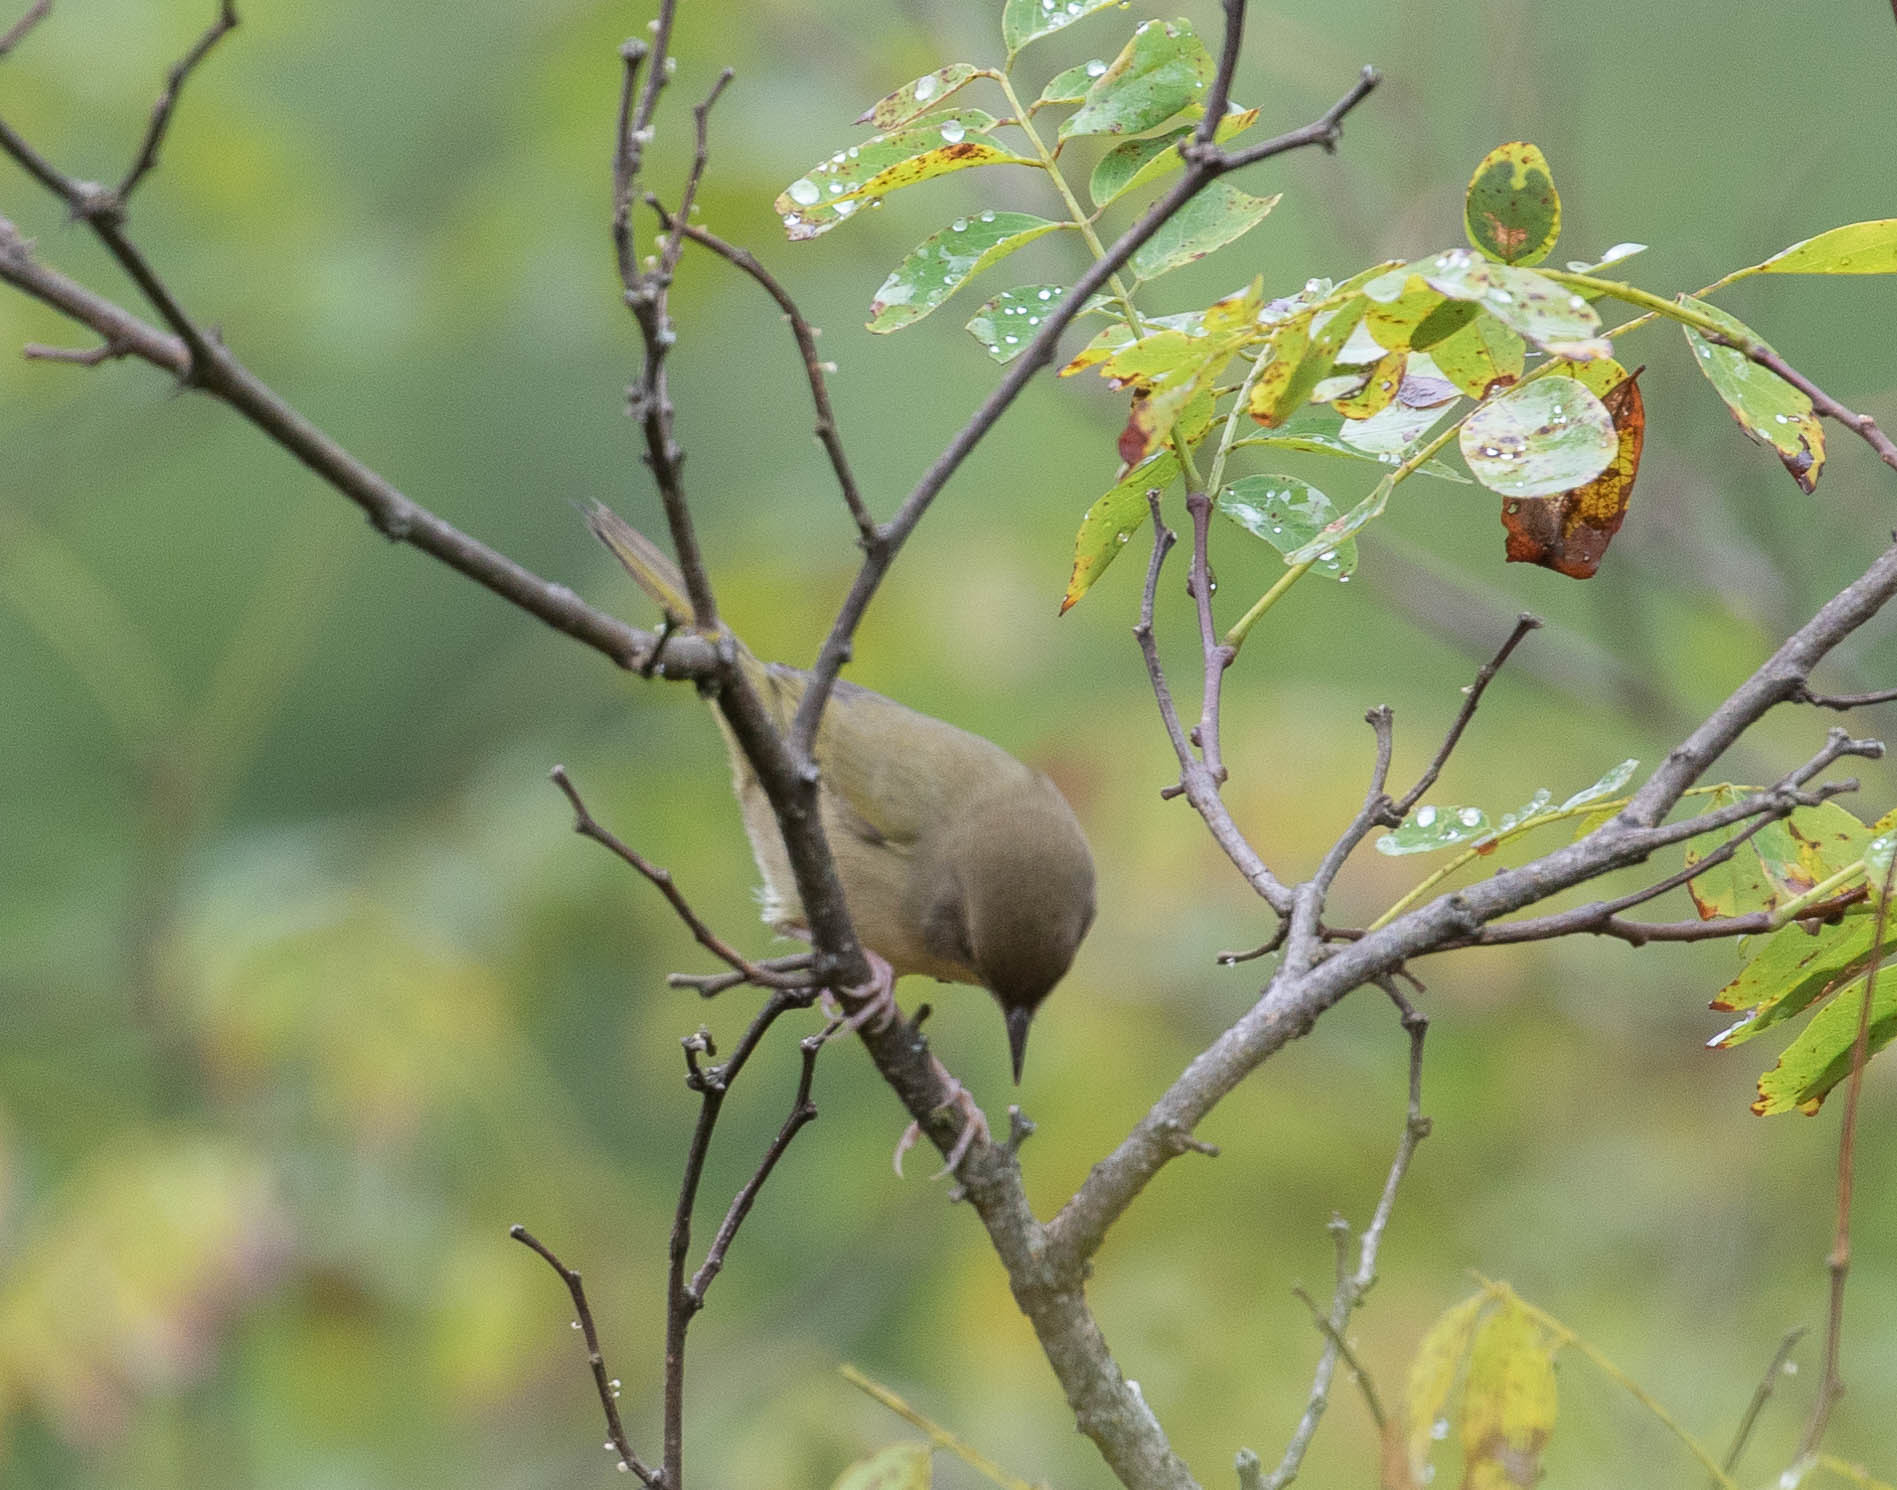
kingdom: Animalia
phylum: Chordata
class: Aves
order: Passeriformes
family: Parulidae
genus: Geothlypis
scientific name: Geothlypis trichas
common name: Common yellowthroat
